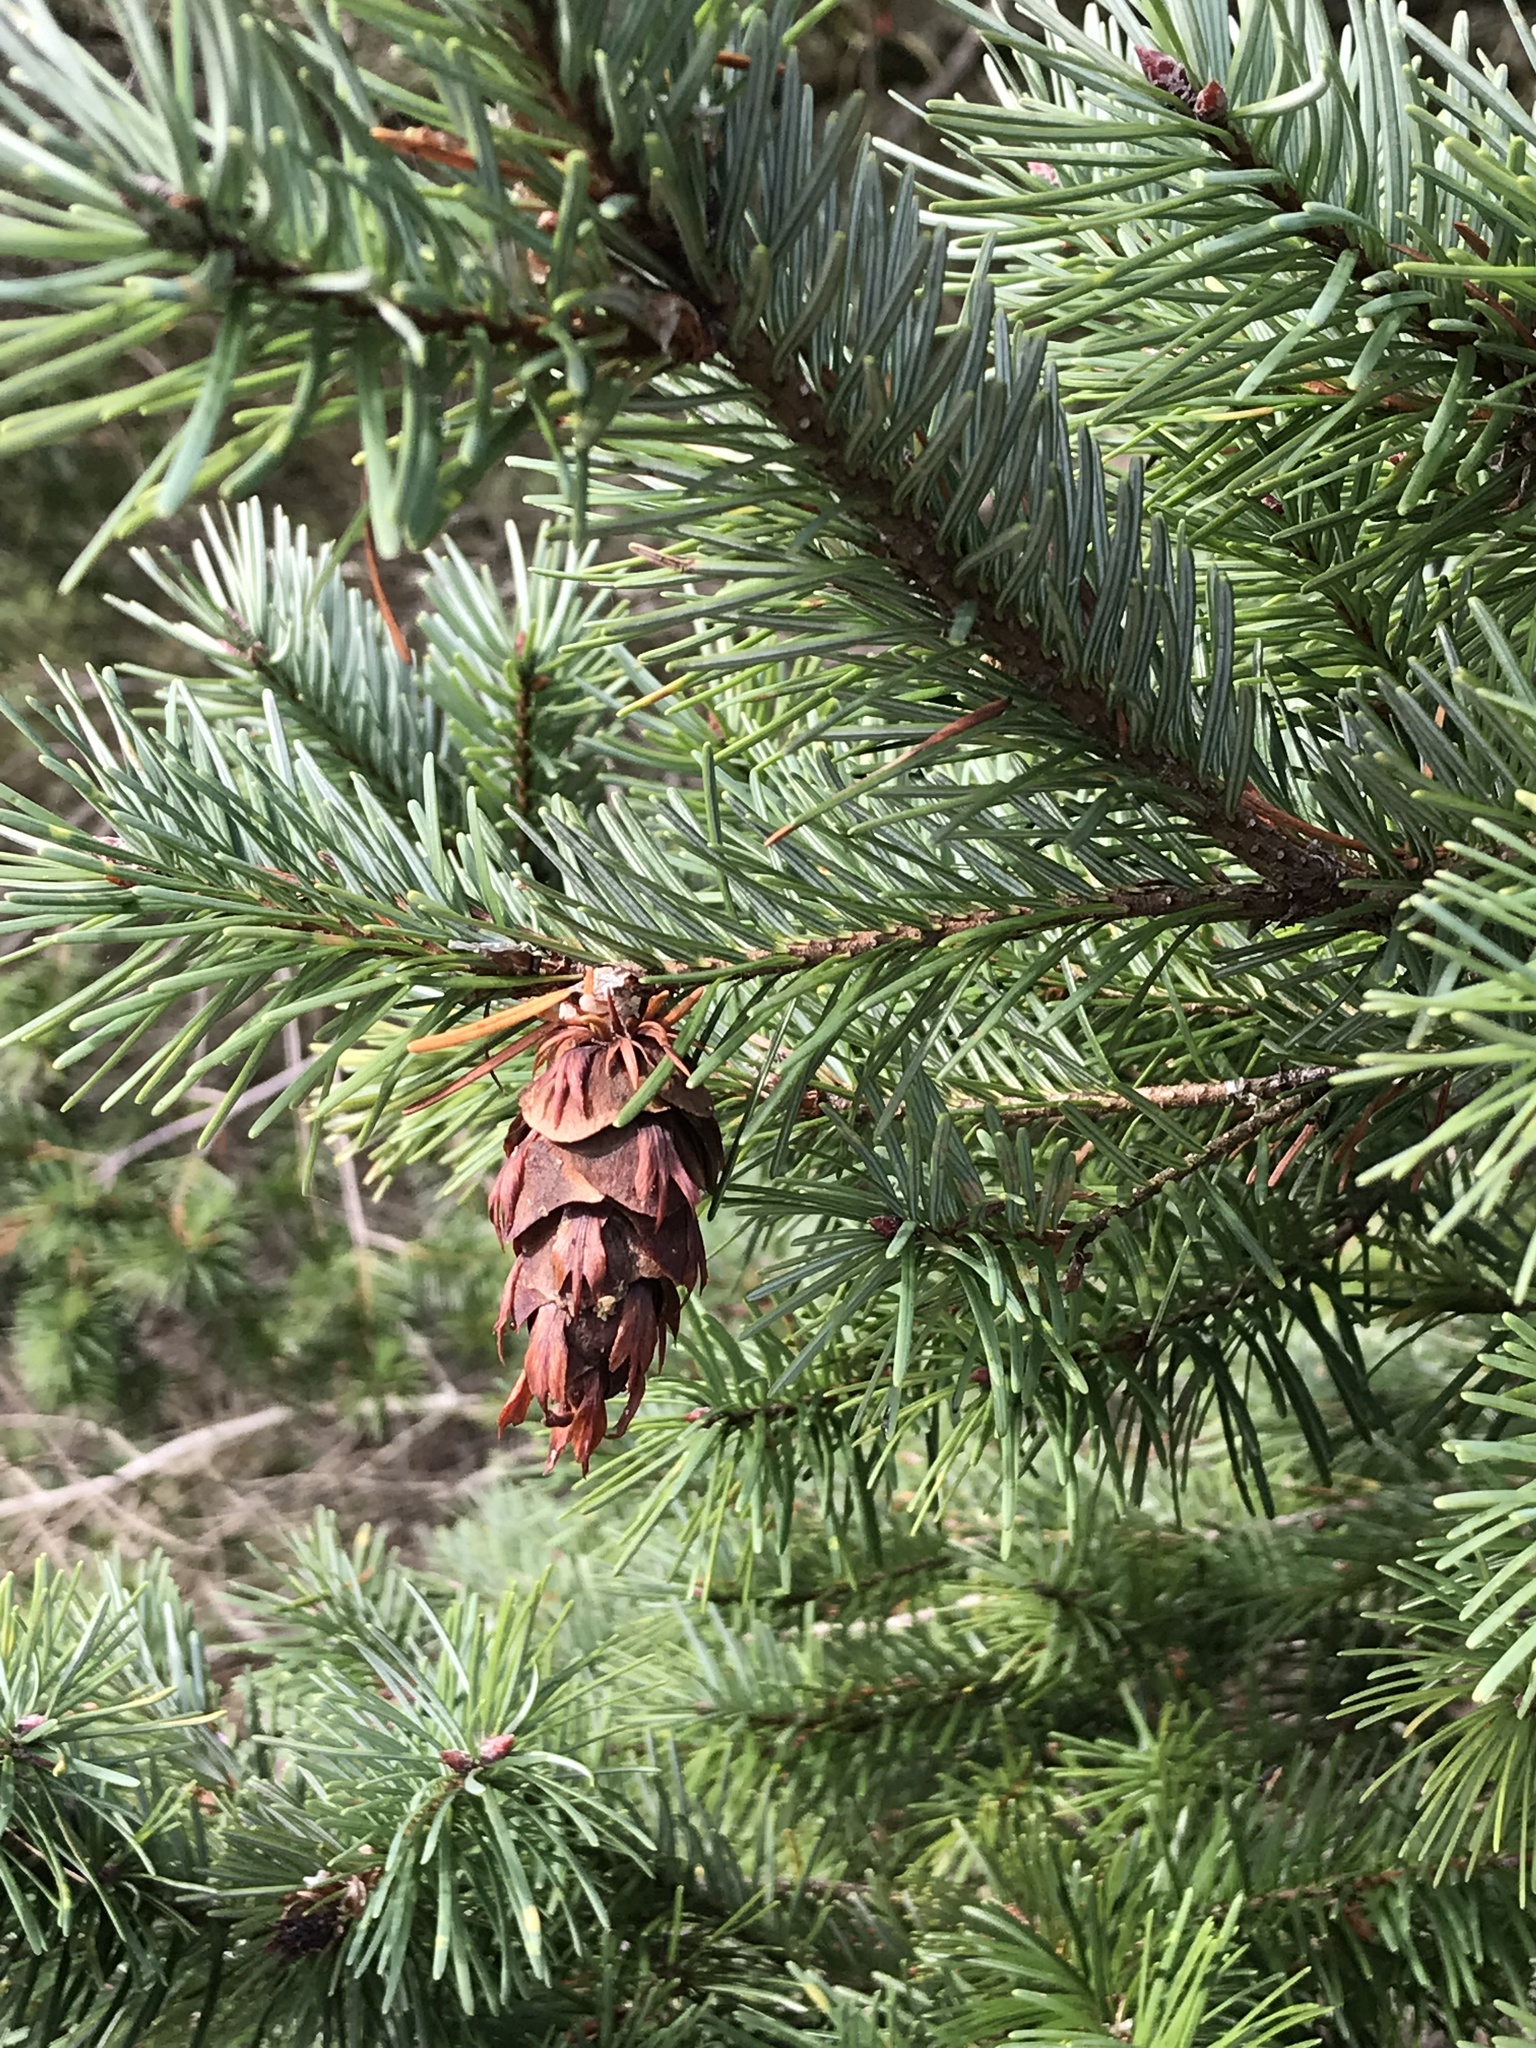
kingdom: Plantae
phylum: Tracheophyta
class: Pinopsida
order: Pinales
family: Pinaceae
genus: Pseudotsuga
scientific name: Pseudotsuga menziesii
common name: Douglas fir
